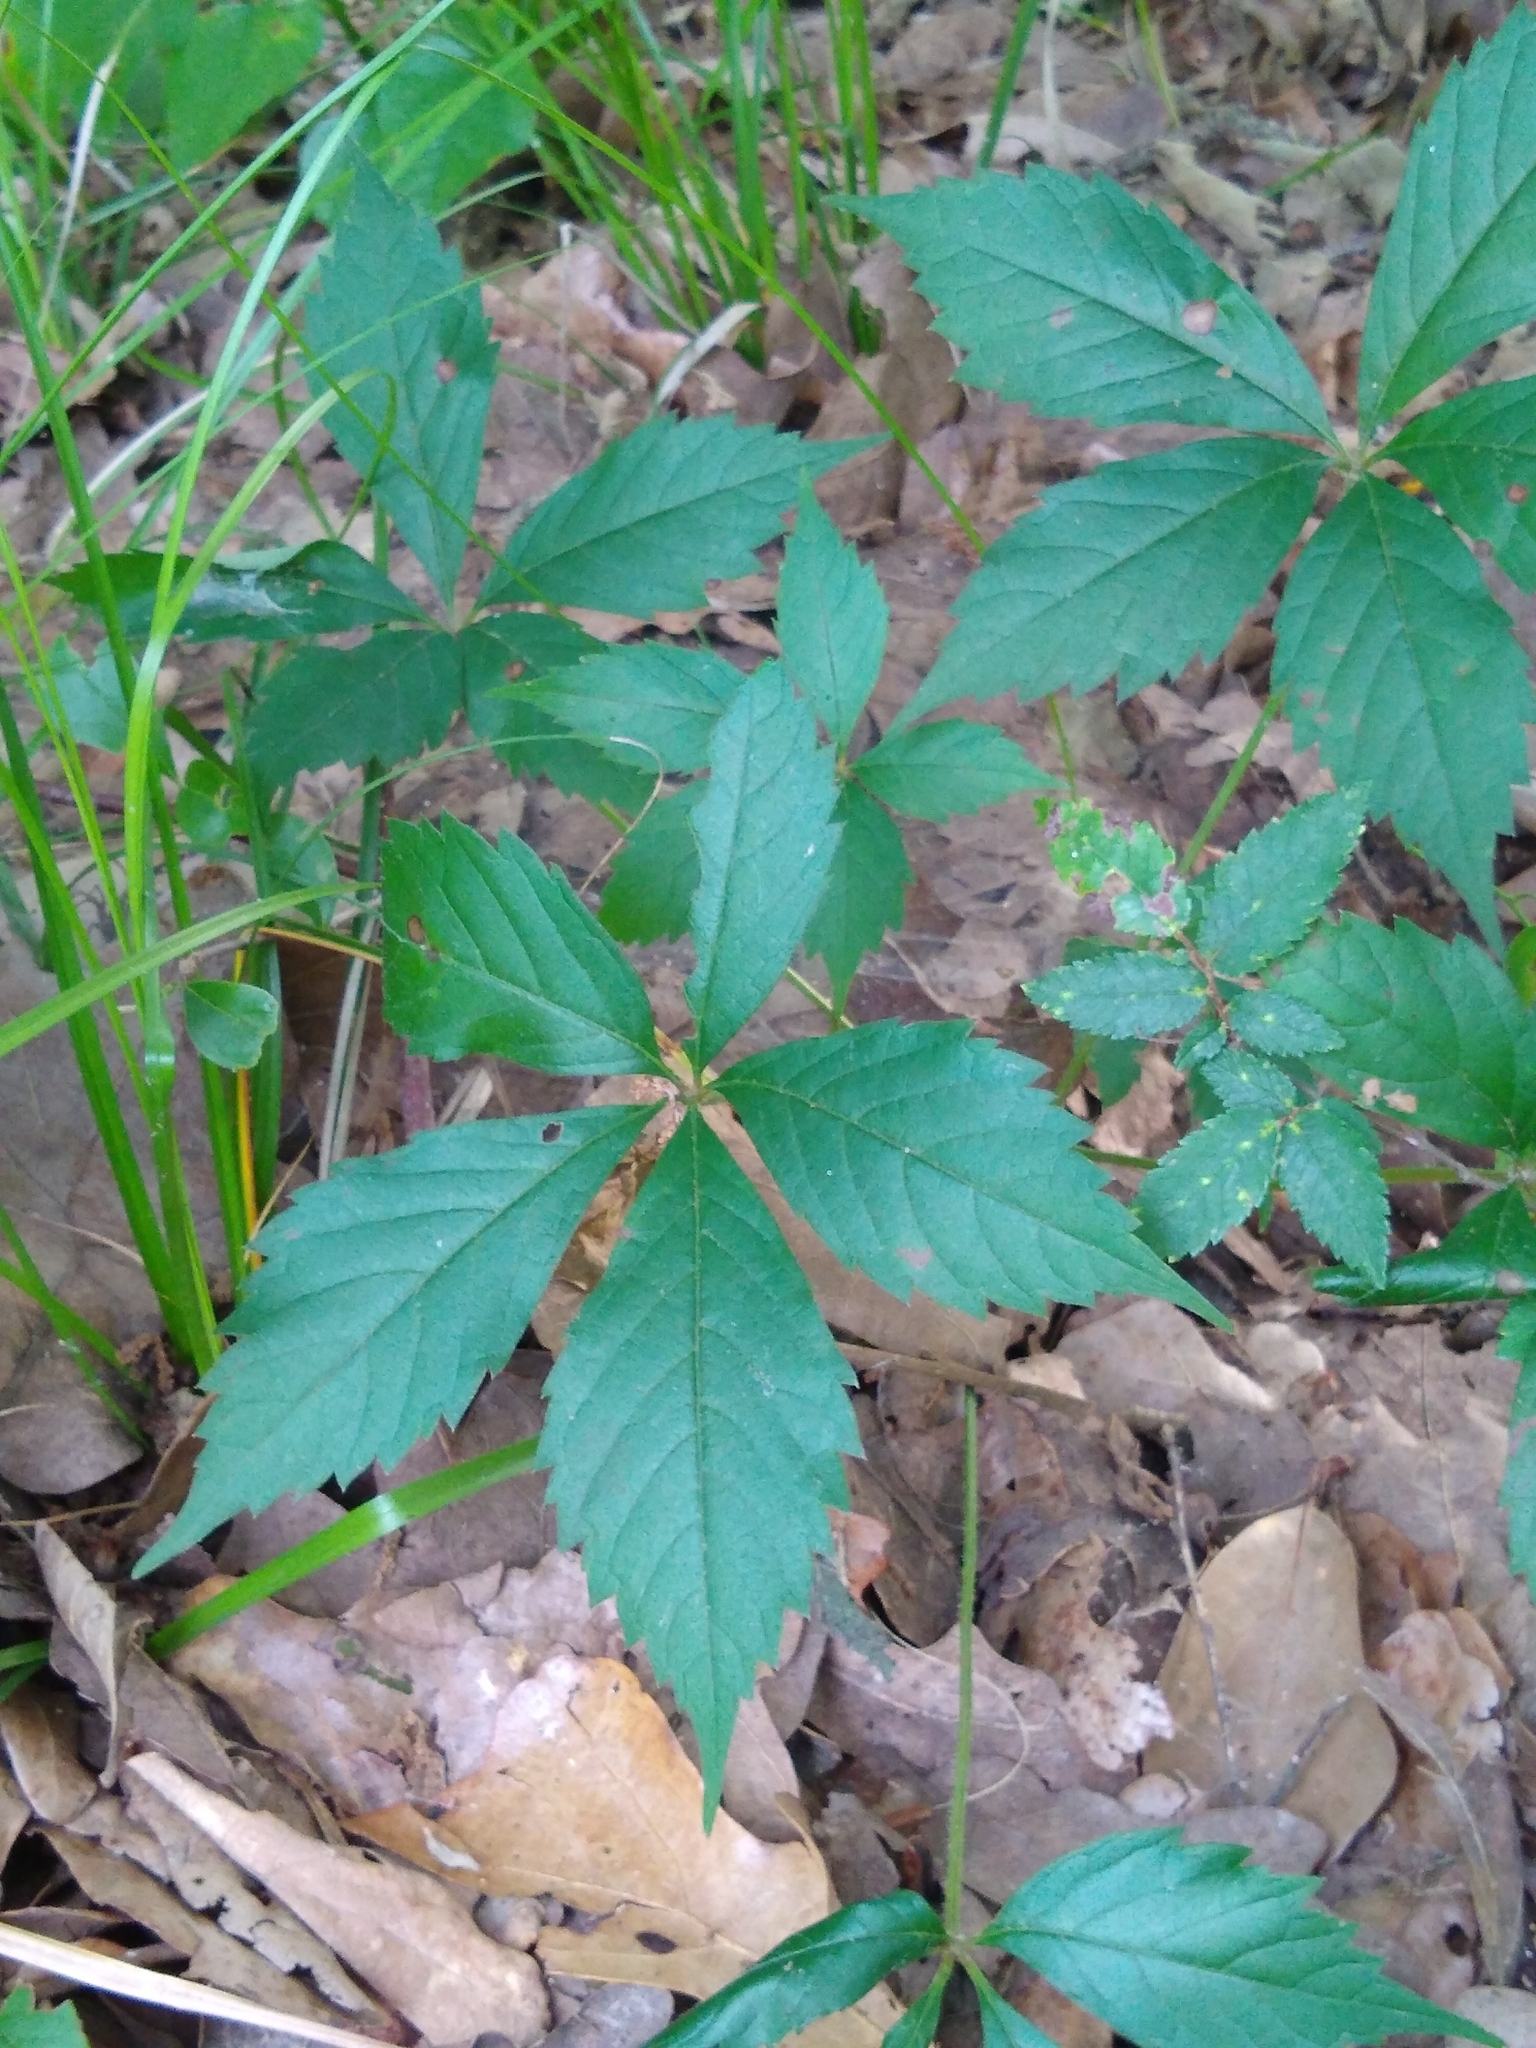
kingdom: Plantae
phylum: Tracheophyta
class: Magnoliopsida
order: Vitales
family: Vitaceae
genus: Parthenocissus
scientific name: Parthenocissus quinquefolia
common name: Virginia-creeper
